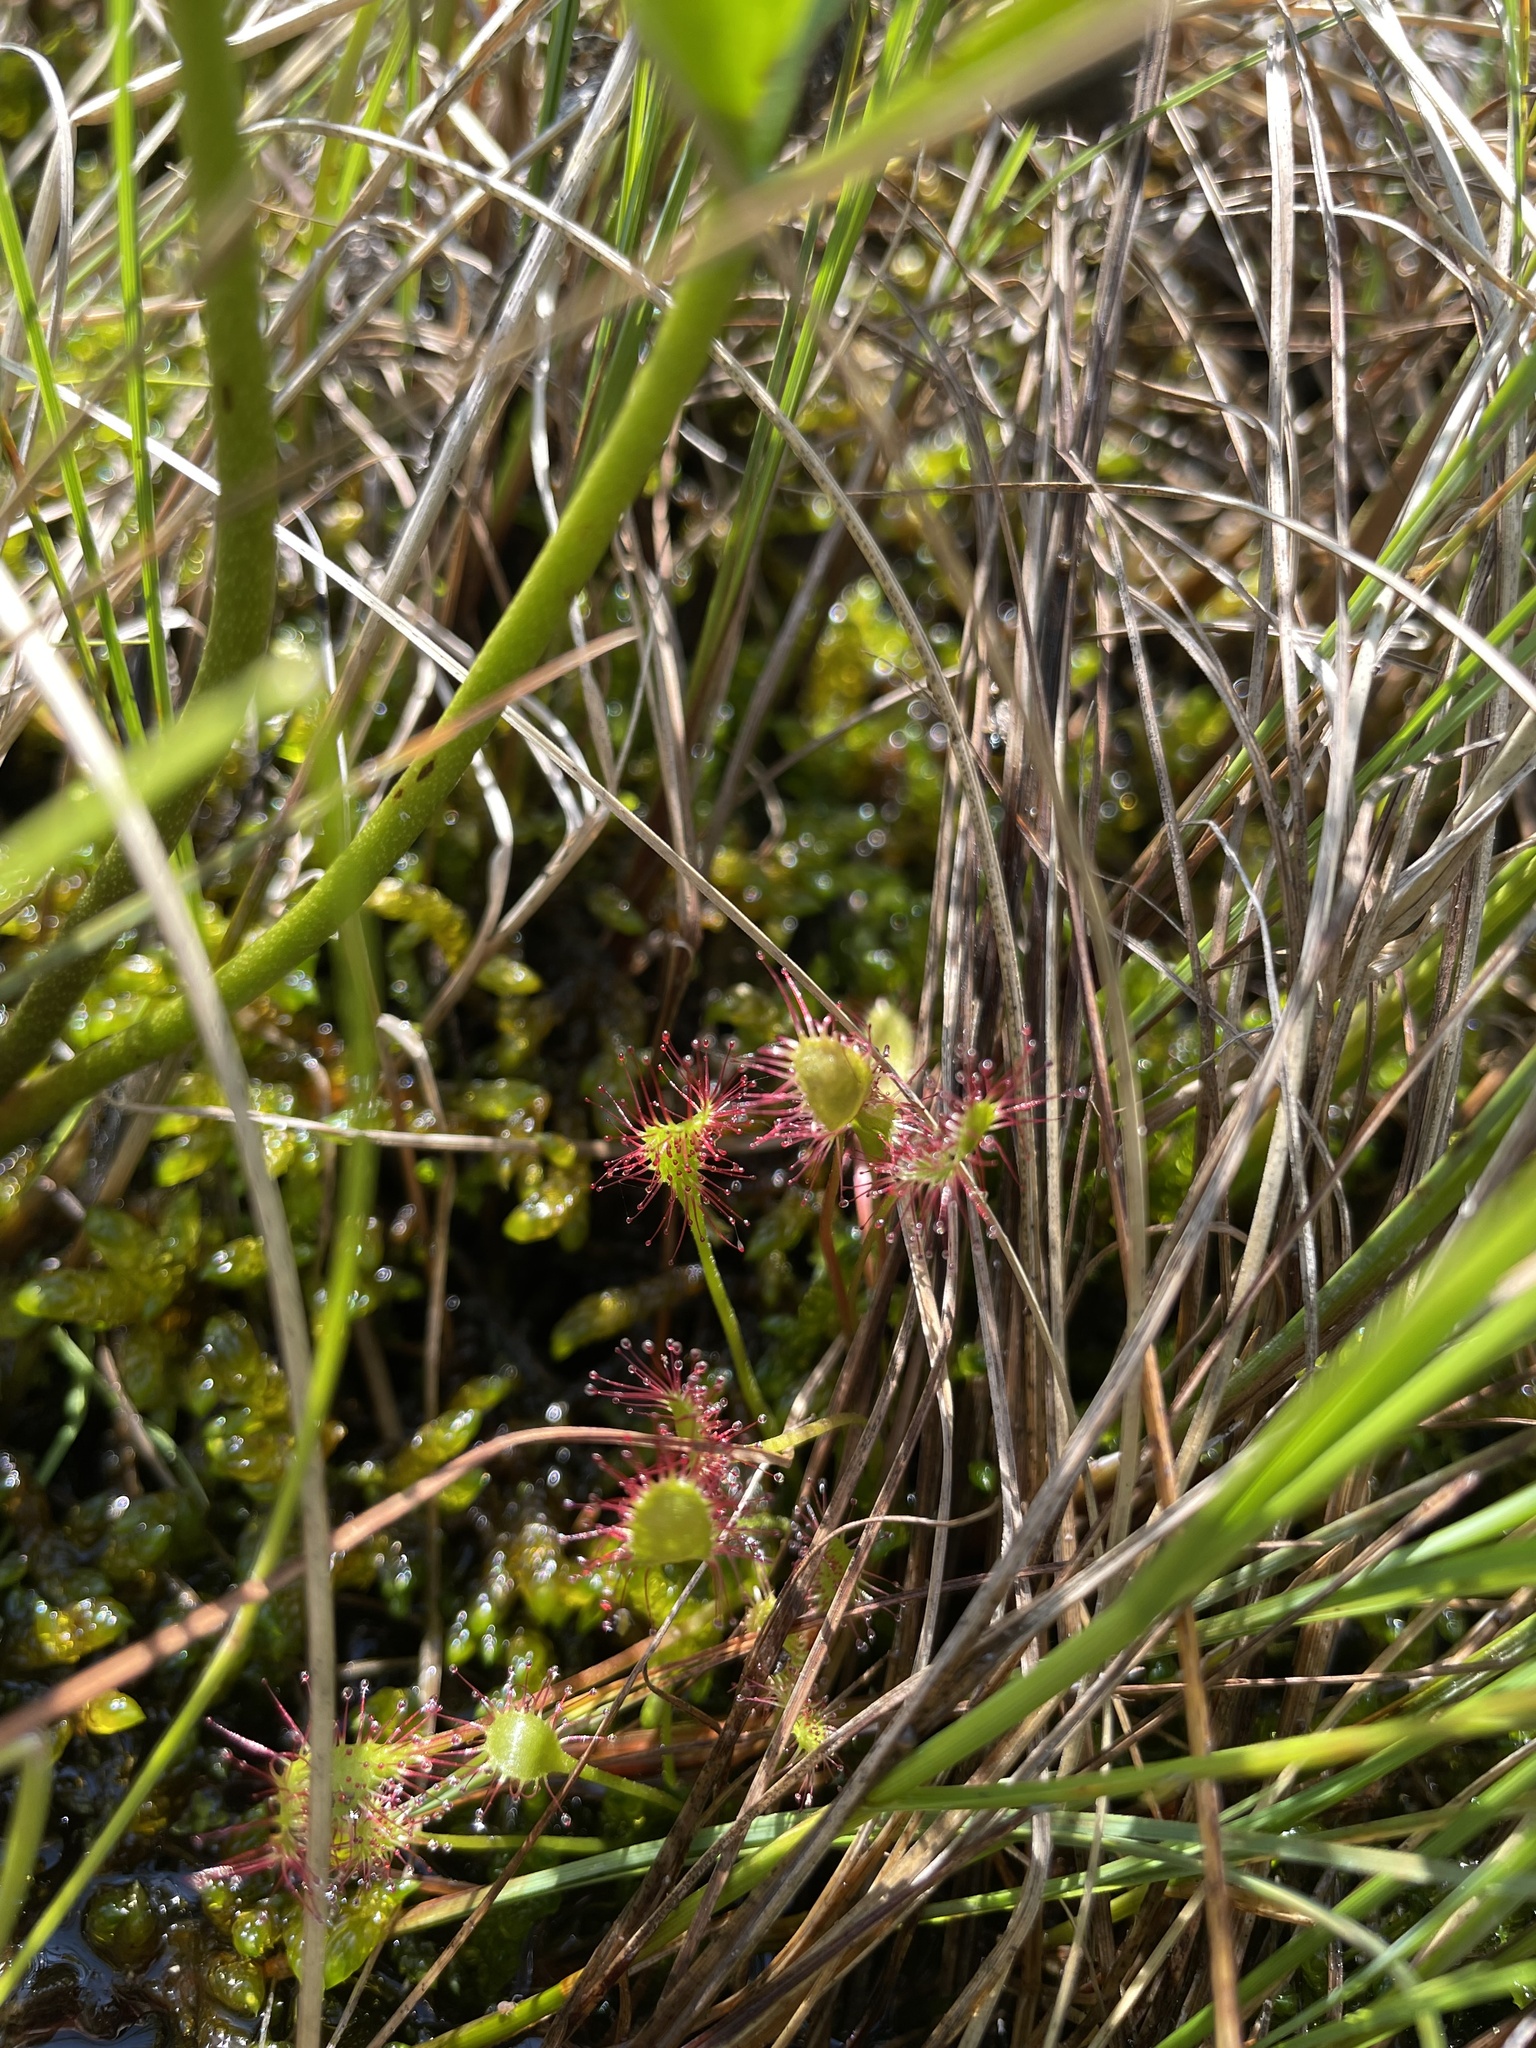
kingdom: Plantae
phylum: Tracheophyta
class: Magnoliopsida
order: Caryophyllales
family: Droseraceae
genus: Drosera
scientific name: Drosera anglica
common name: Great sundew
